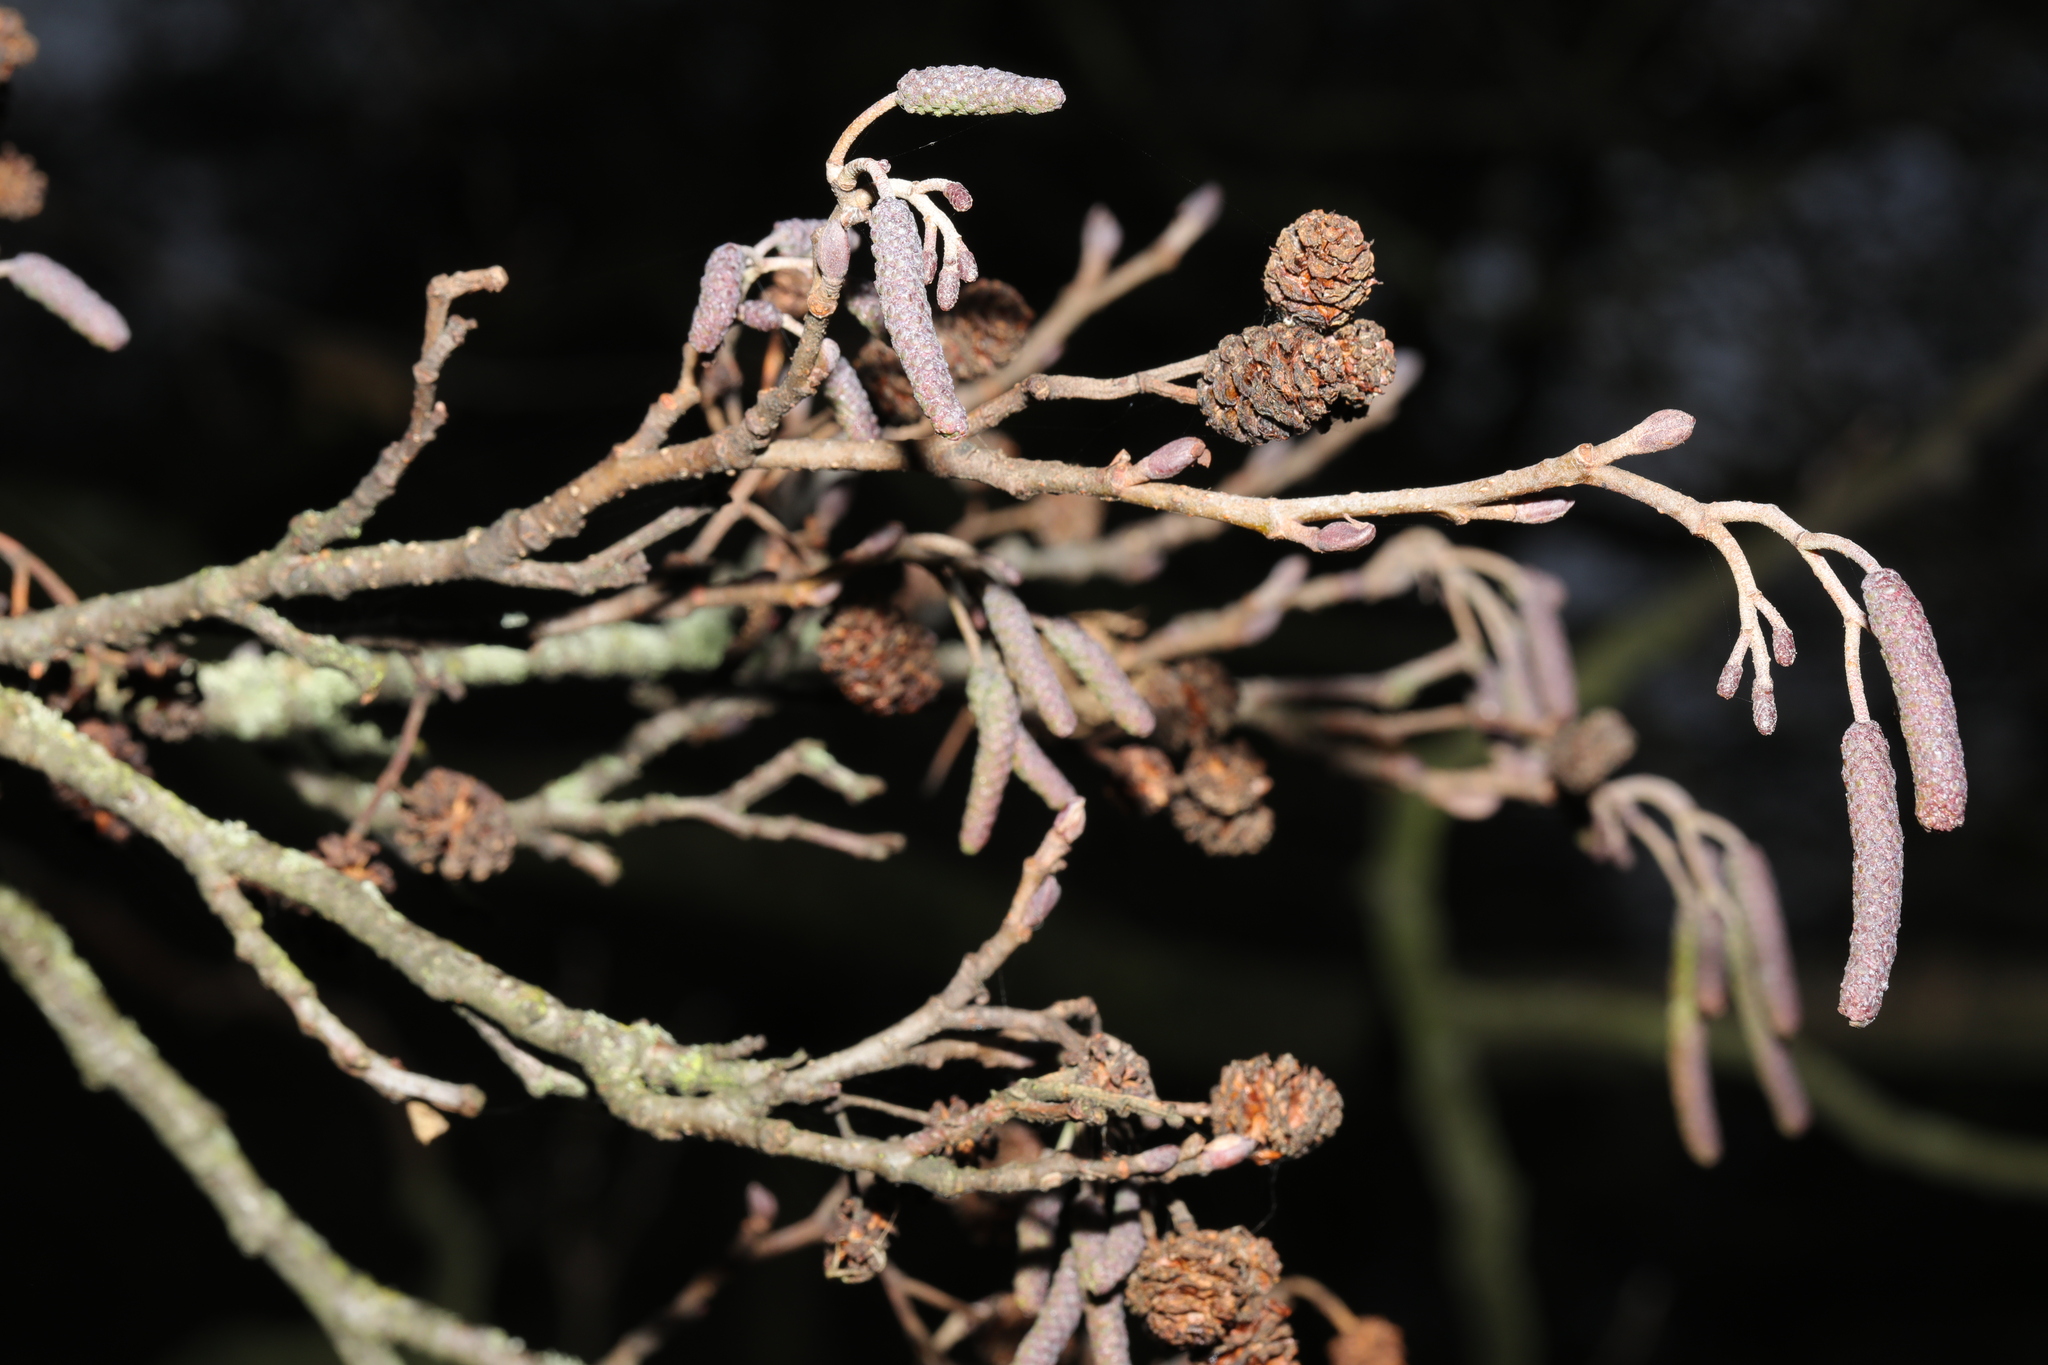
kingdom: Plantae
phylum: Tracheophyta
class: Magnoliopsida
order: Fagales
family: Betulaceae
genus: Alnus
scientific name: Alnus glutinosa
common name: Black alder
